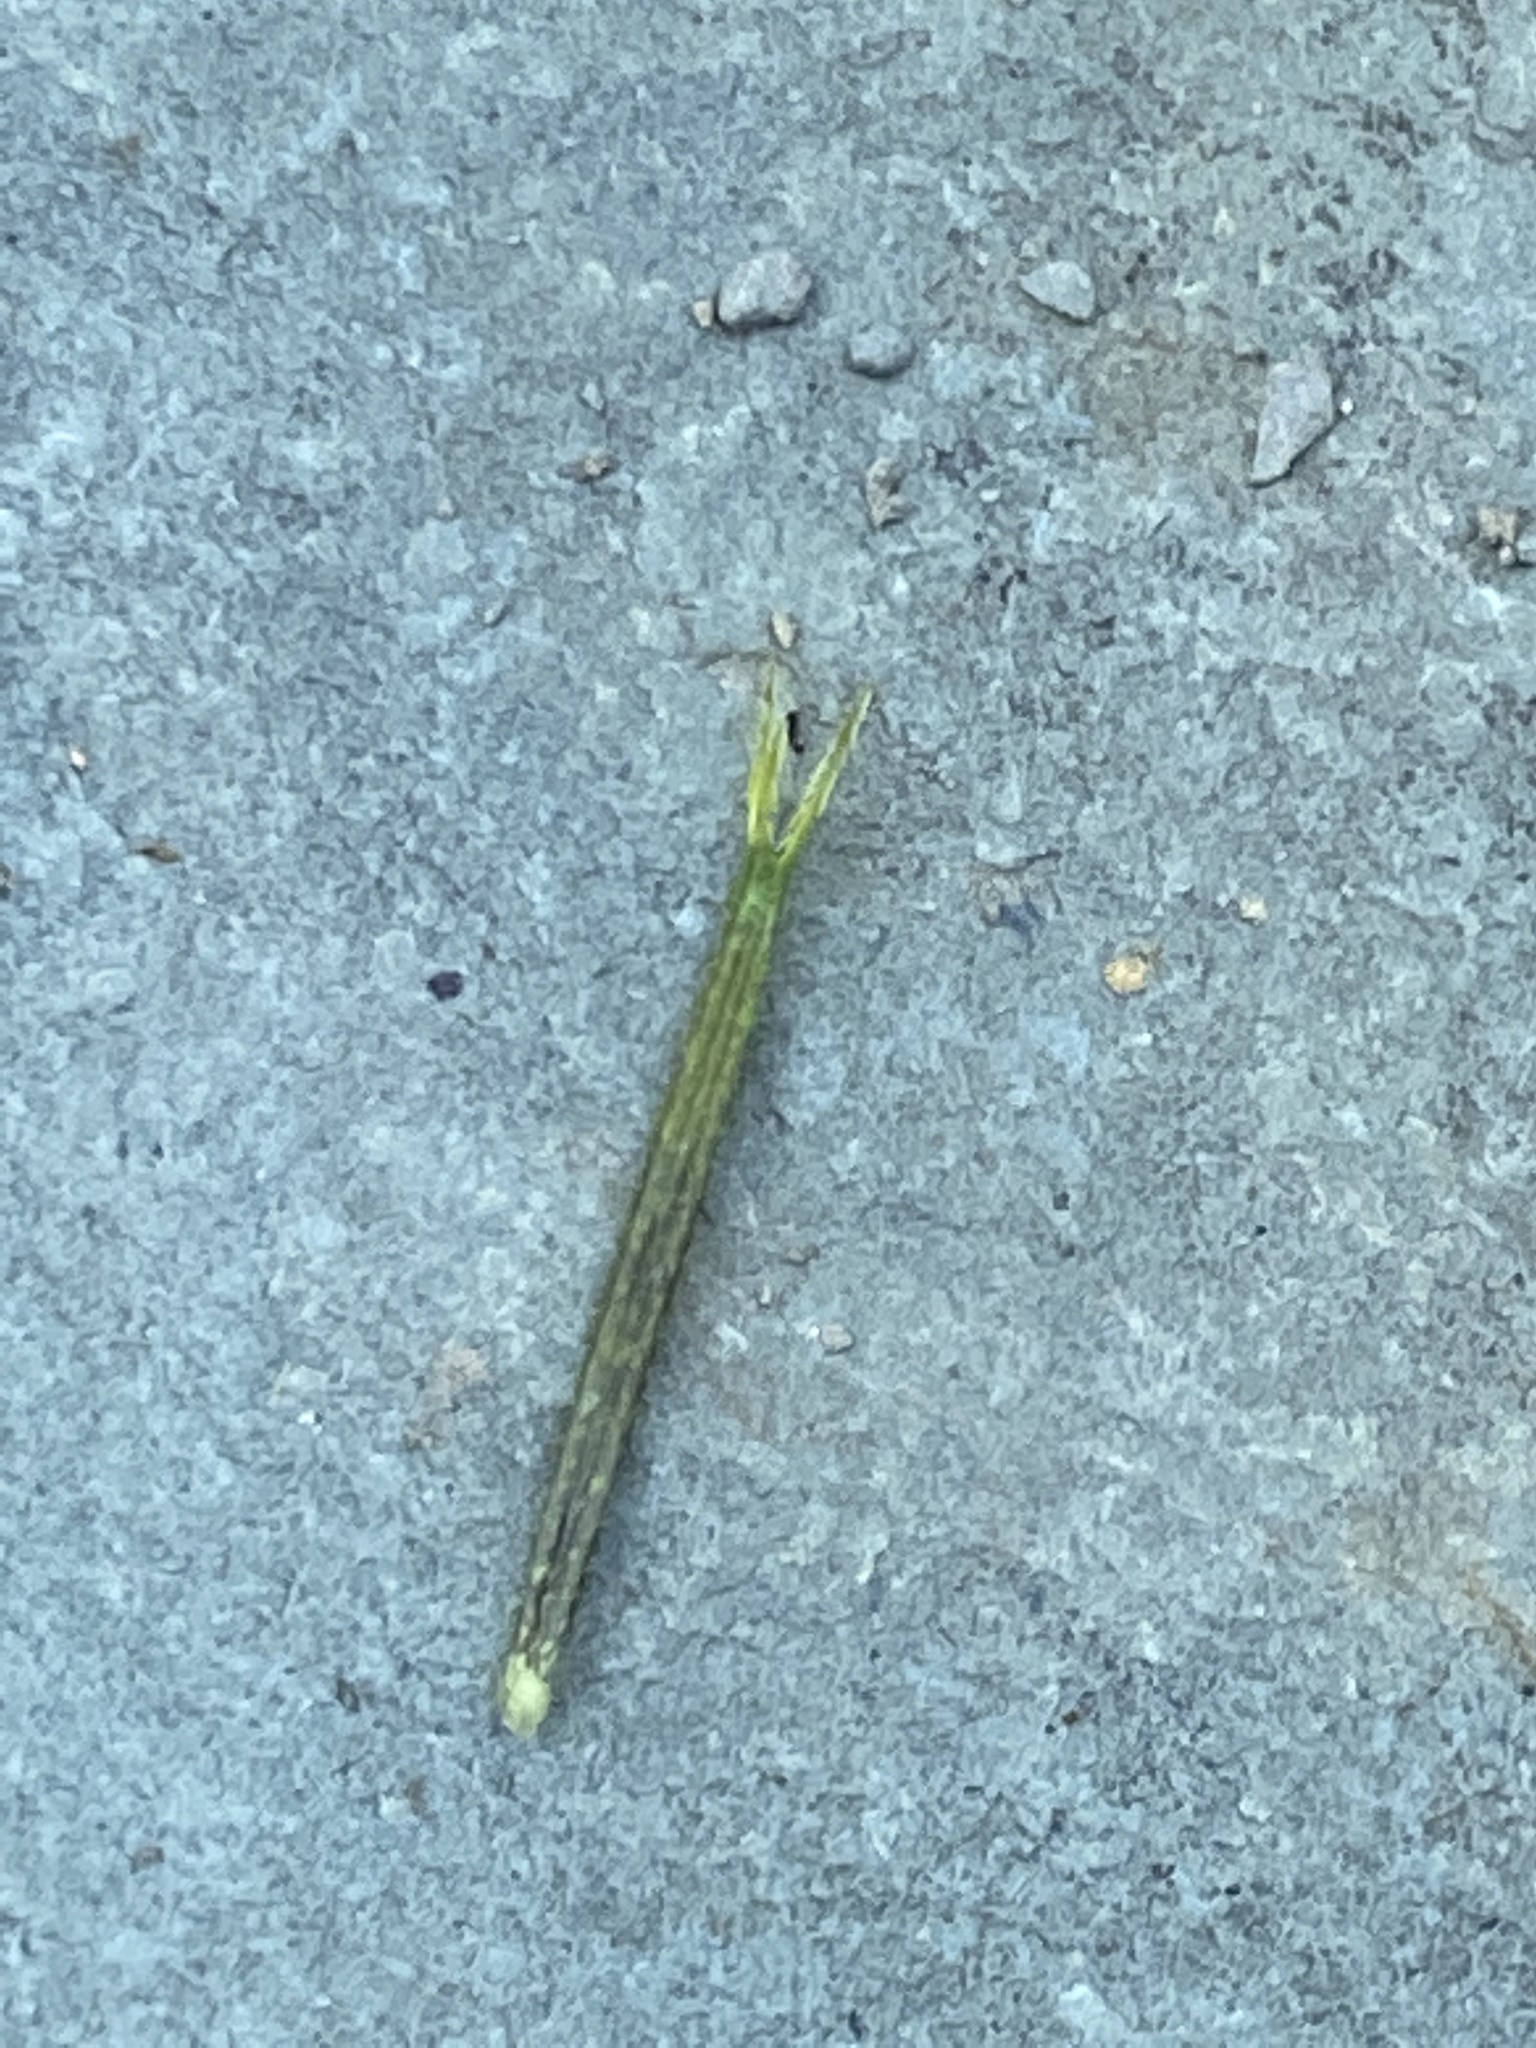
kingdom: Plantae
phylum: Tracheophyta
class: Magnoliopsida
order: Asterales
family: Asteraceae
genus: Bidens
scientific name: Bidens bipinnata
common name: Spanish-needles
